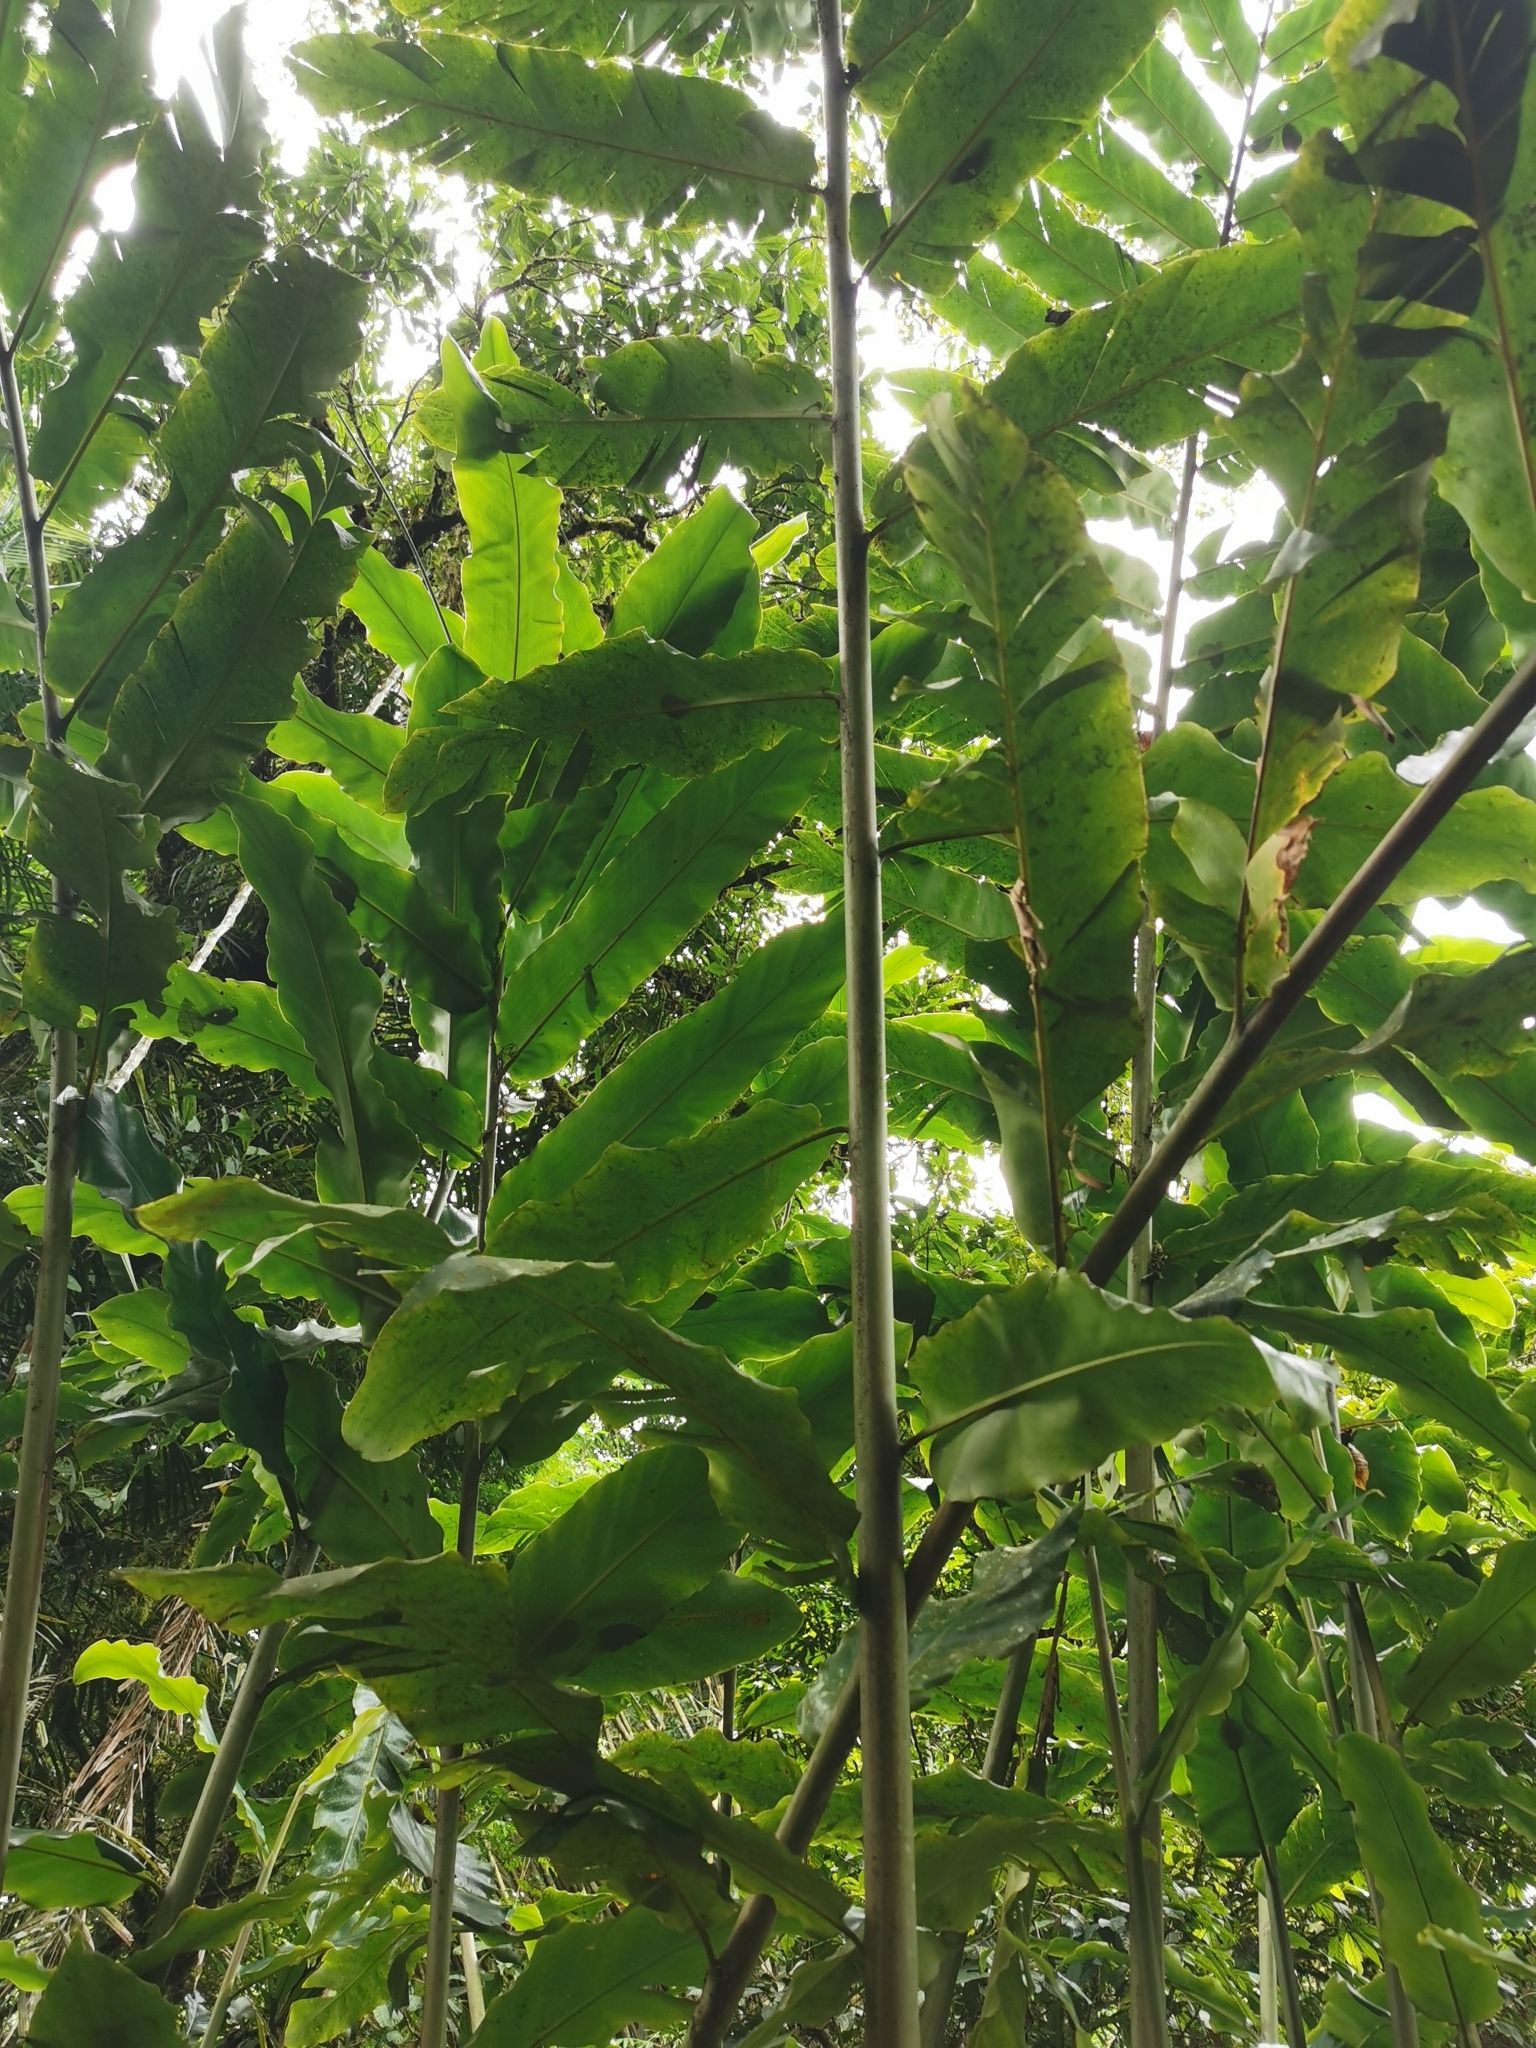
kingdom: Plantae
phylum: Tracheophyta
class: Liliopsida
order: Zingiberales
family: Zingiberaceae
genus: Etlingera
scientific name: Etlingera elatior
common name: Philippine waxflower
